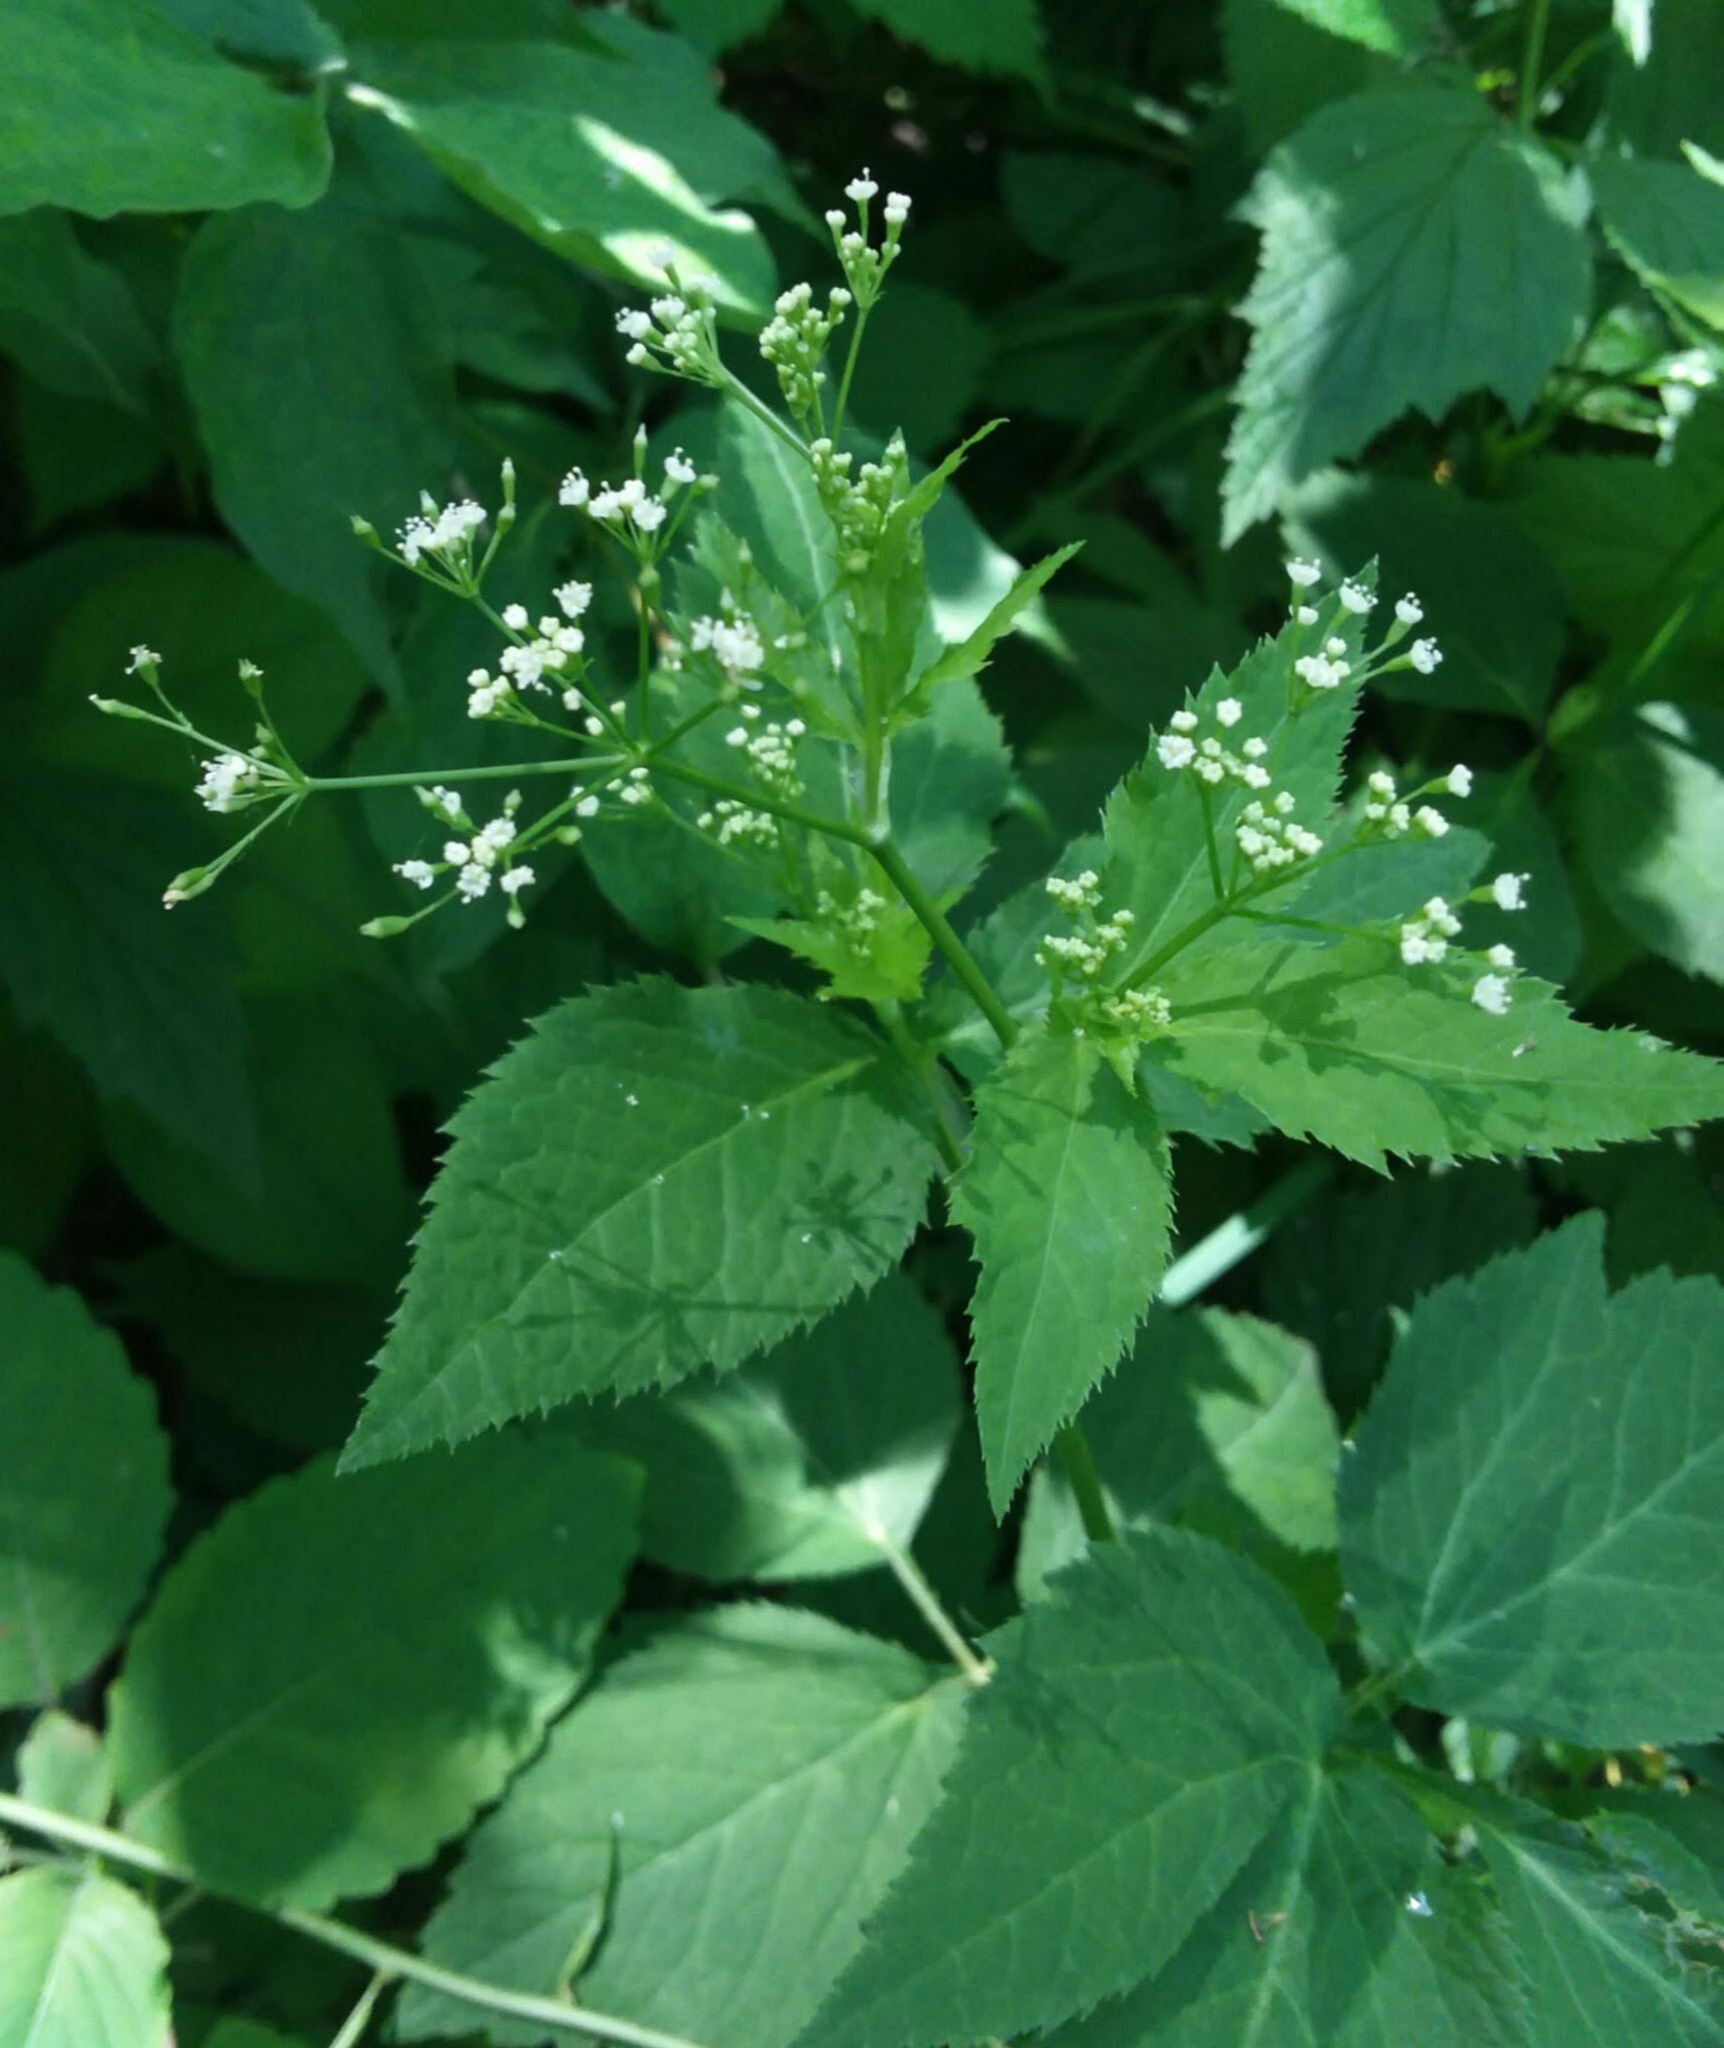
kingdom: Plantae
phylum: Tracheophyta
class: Magnoliopsida
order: Apiales
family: Apiaceae
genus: Cryptotaenia
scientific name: Cryptotaenia canadensis
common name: Honewort
